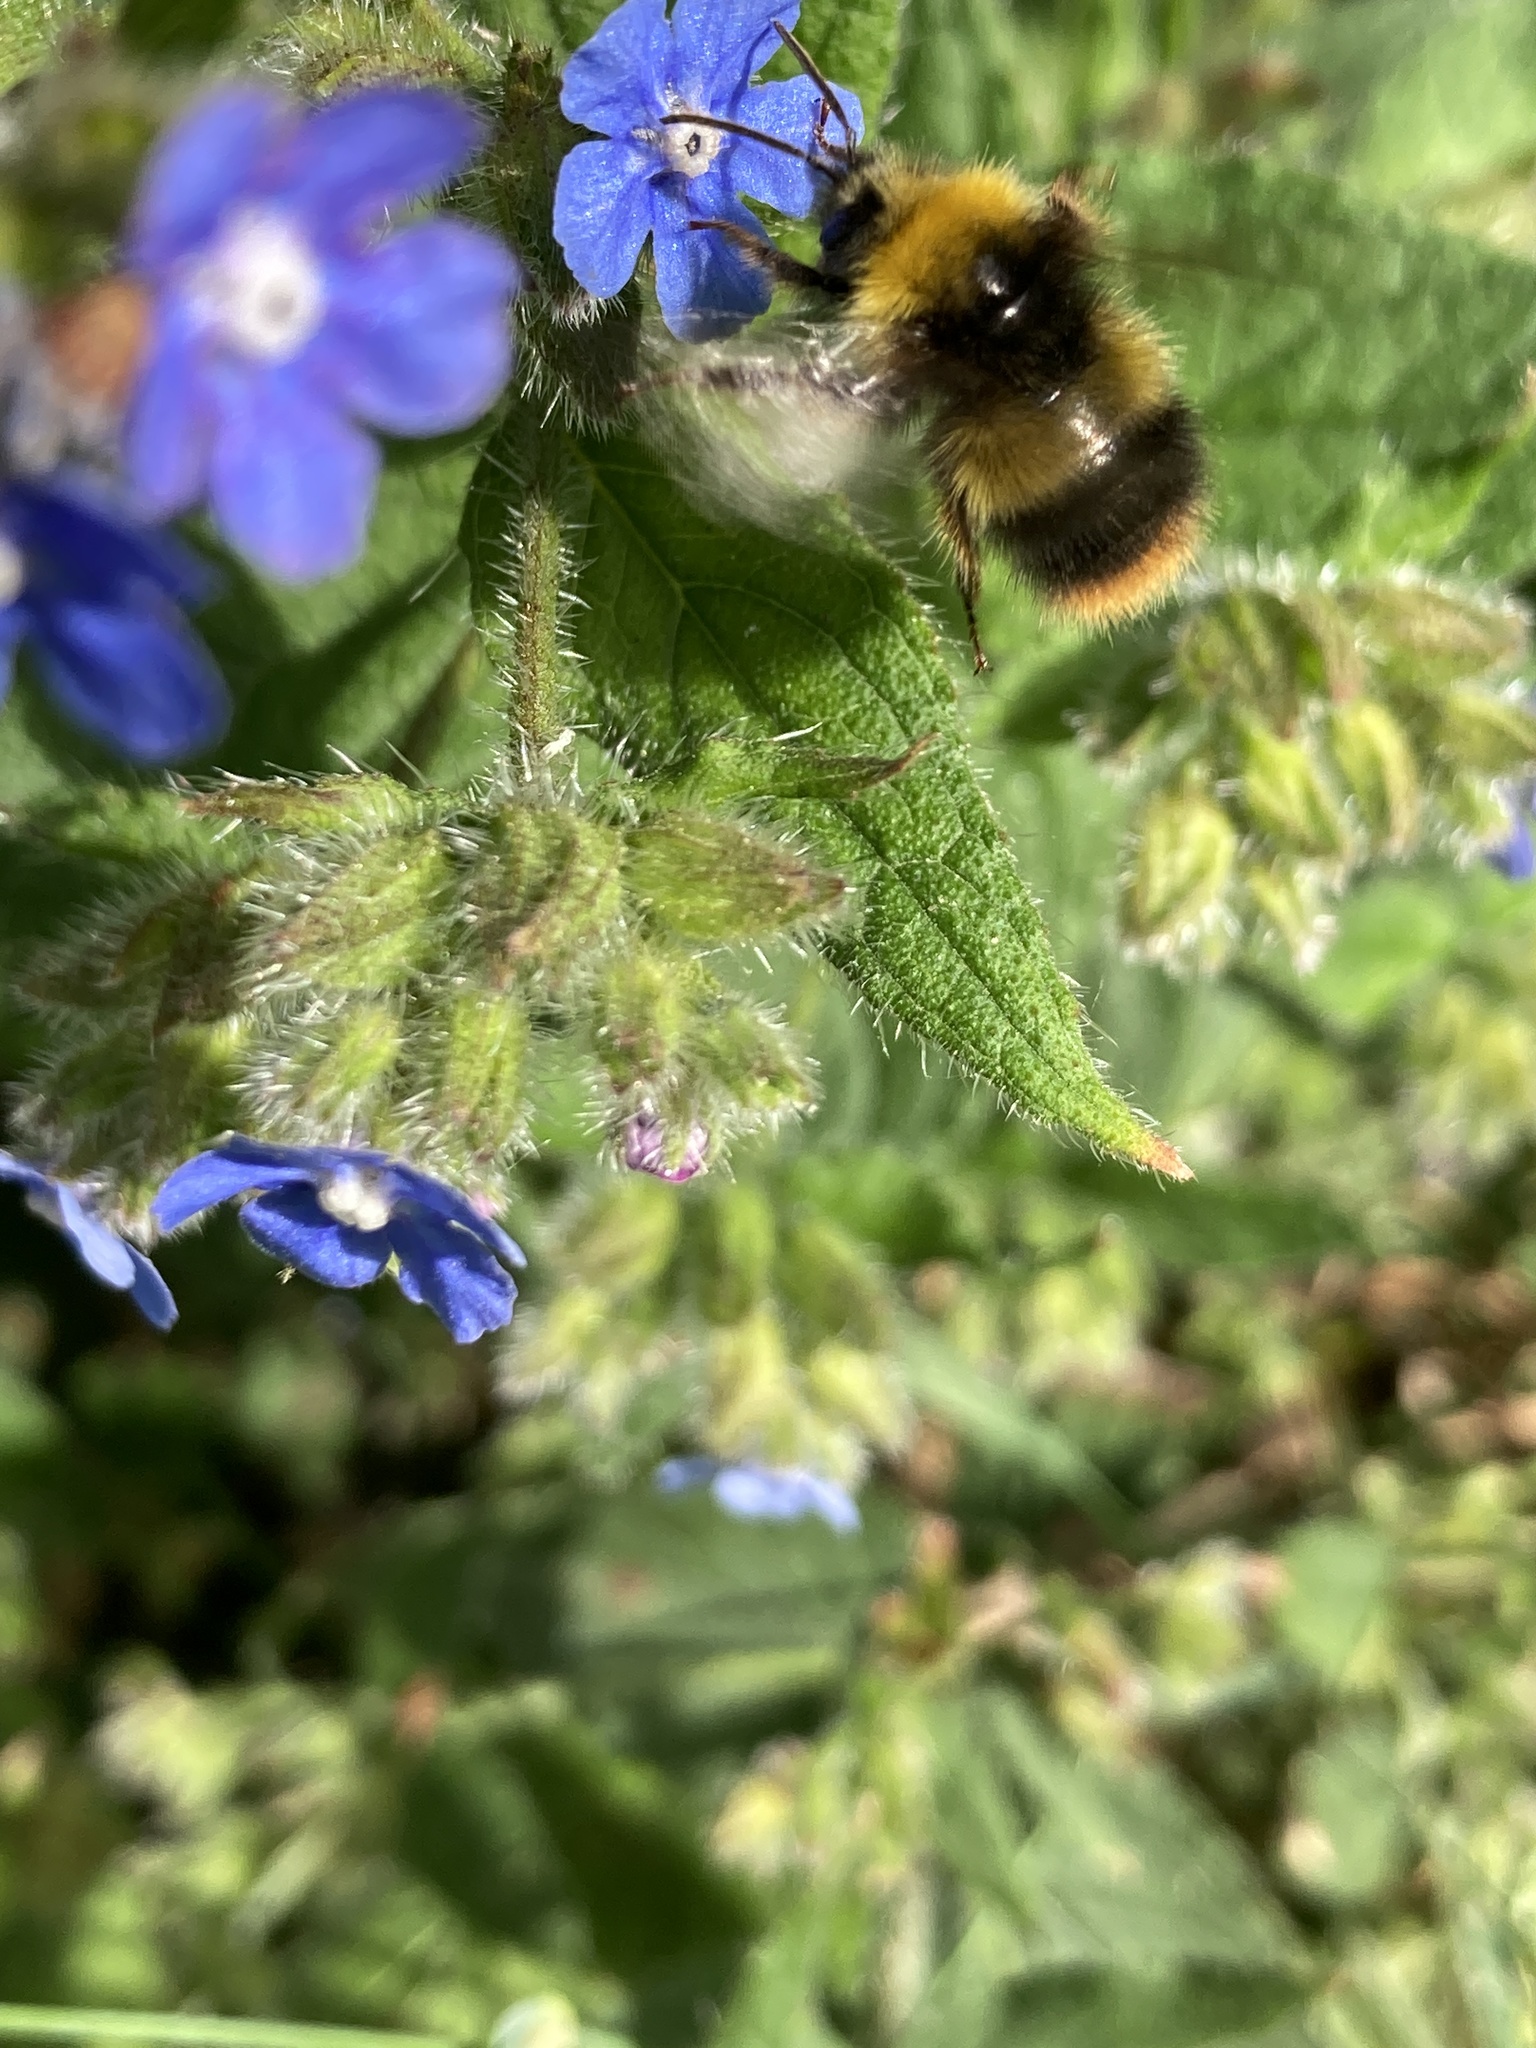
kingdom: Animalia
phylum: Arthropoda
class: Insecta
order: Hymenoptera
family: Apidae
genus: Bombus
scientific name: Bombus pratorum
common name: Early humble-bee
